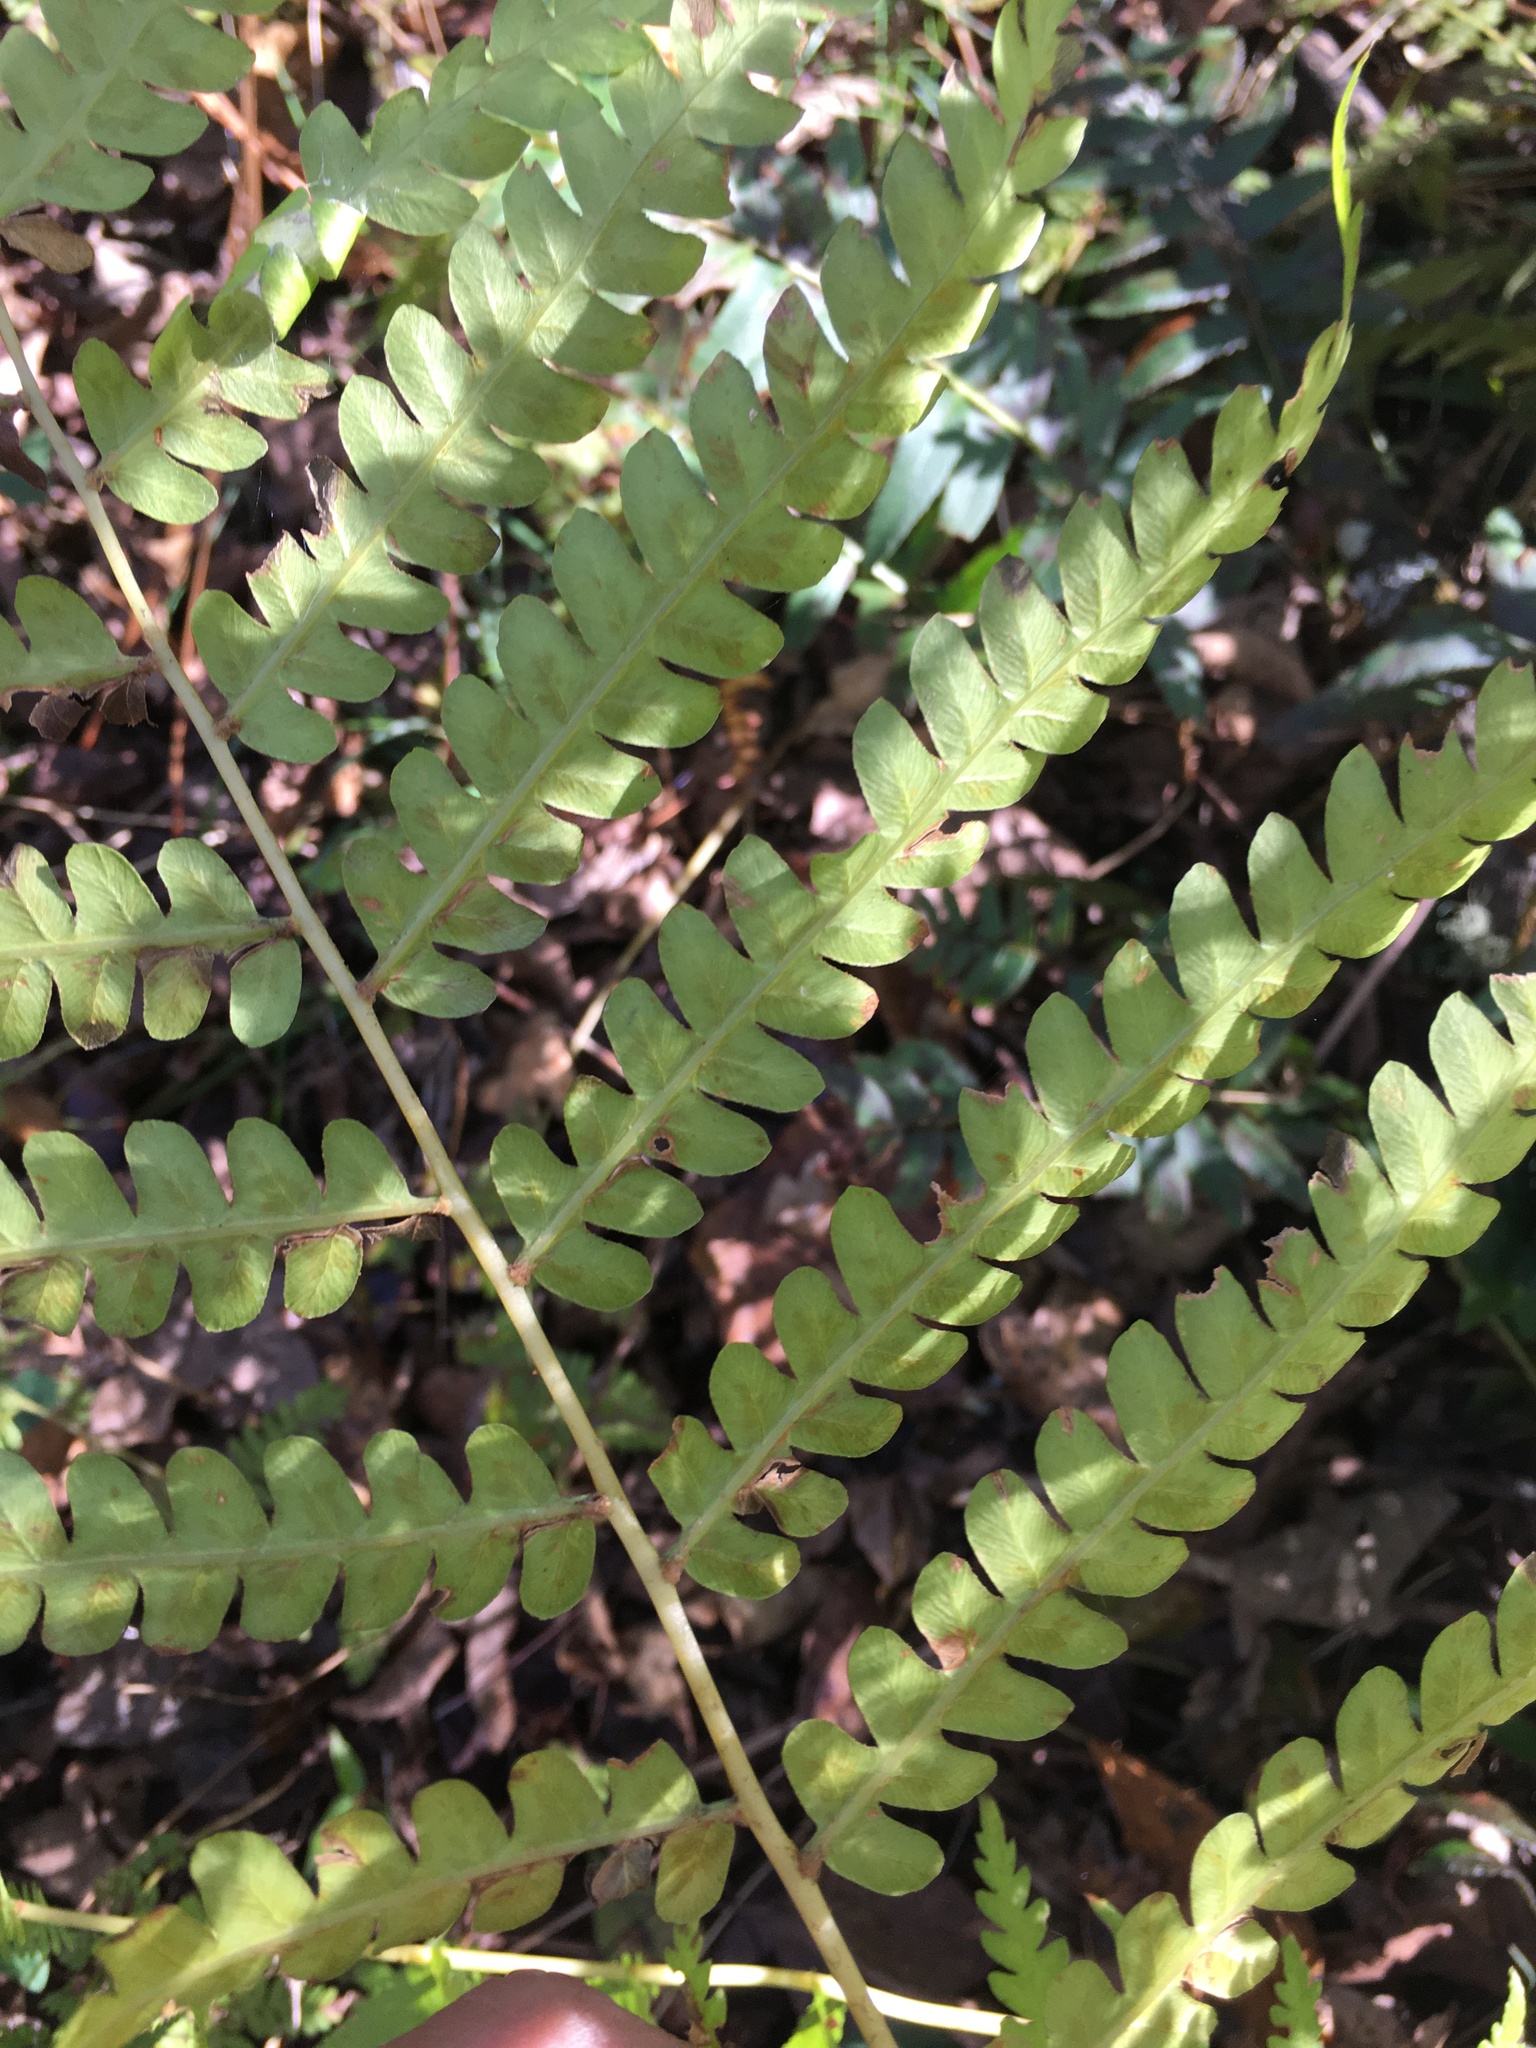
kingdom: Plantae
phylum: Tracheophyta
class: Polypodiopsida
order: Osmundales
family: Osmundaceae
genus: Osmundastrum
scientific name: Osmundastrum cinnamomeum
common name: Cinnamon fern
